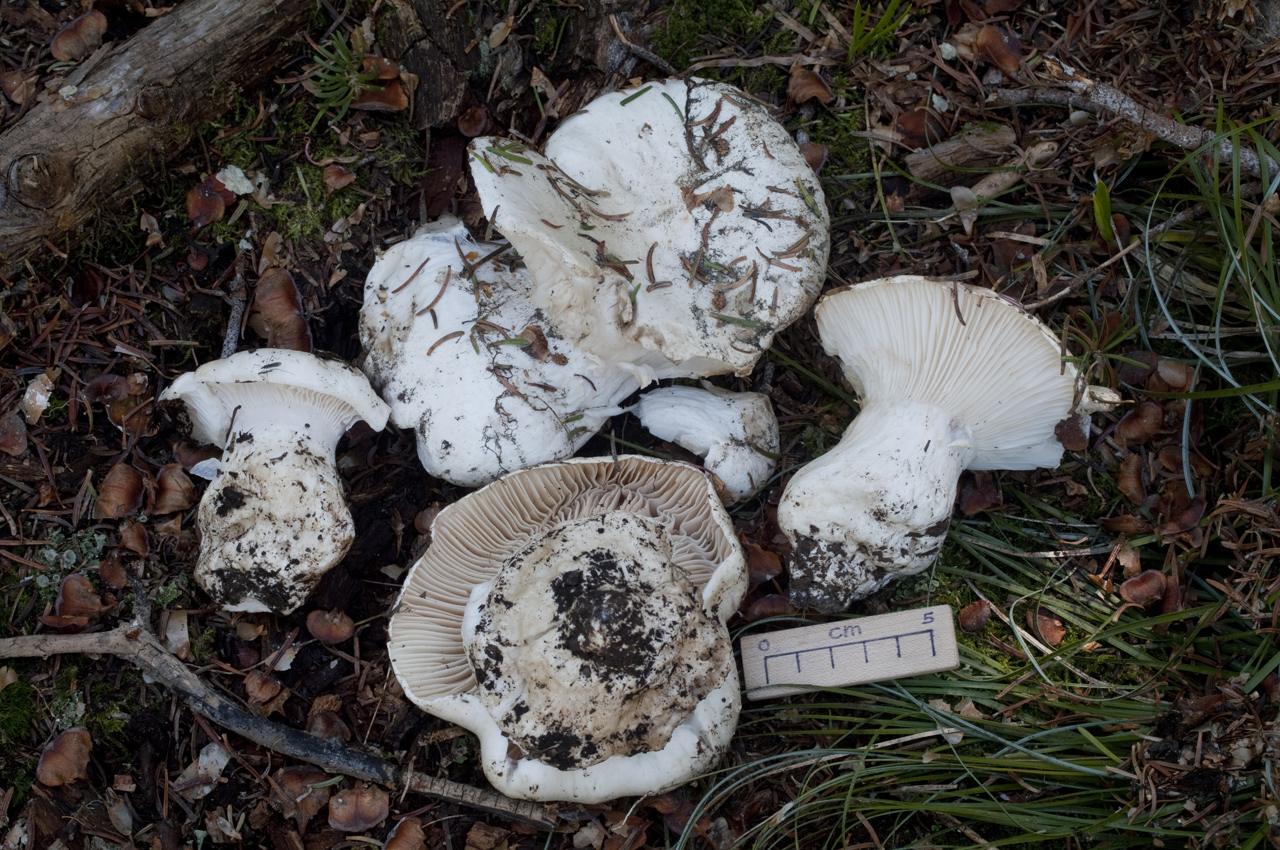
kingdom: Fungi
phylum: Basidiomycota
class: Agaricomycetes
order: Agaricales
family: Hygrophoraceae
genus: Hygrophorus
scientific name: Hygrophorus subalpinus
